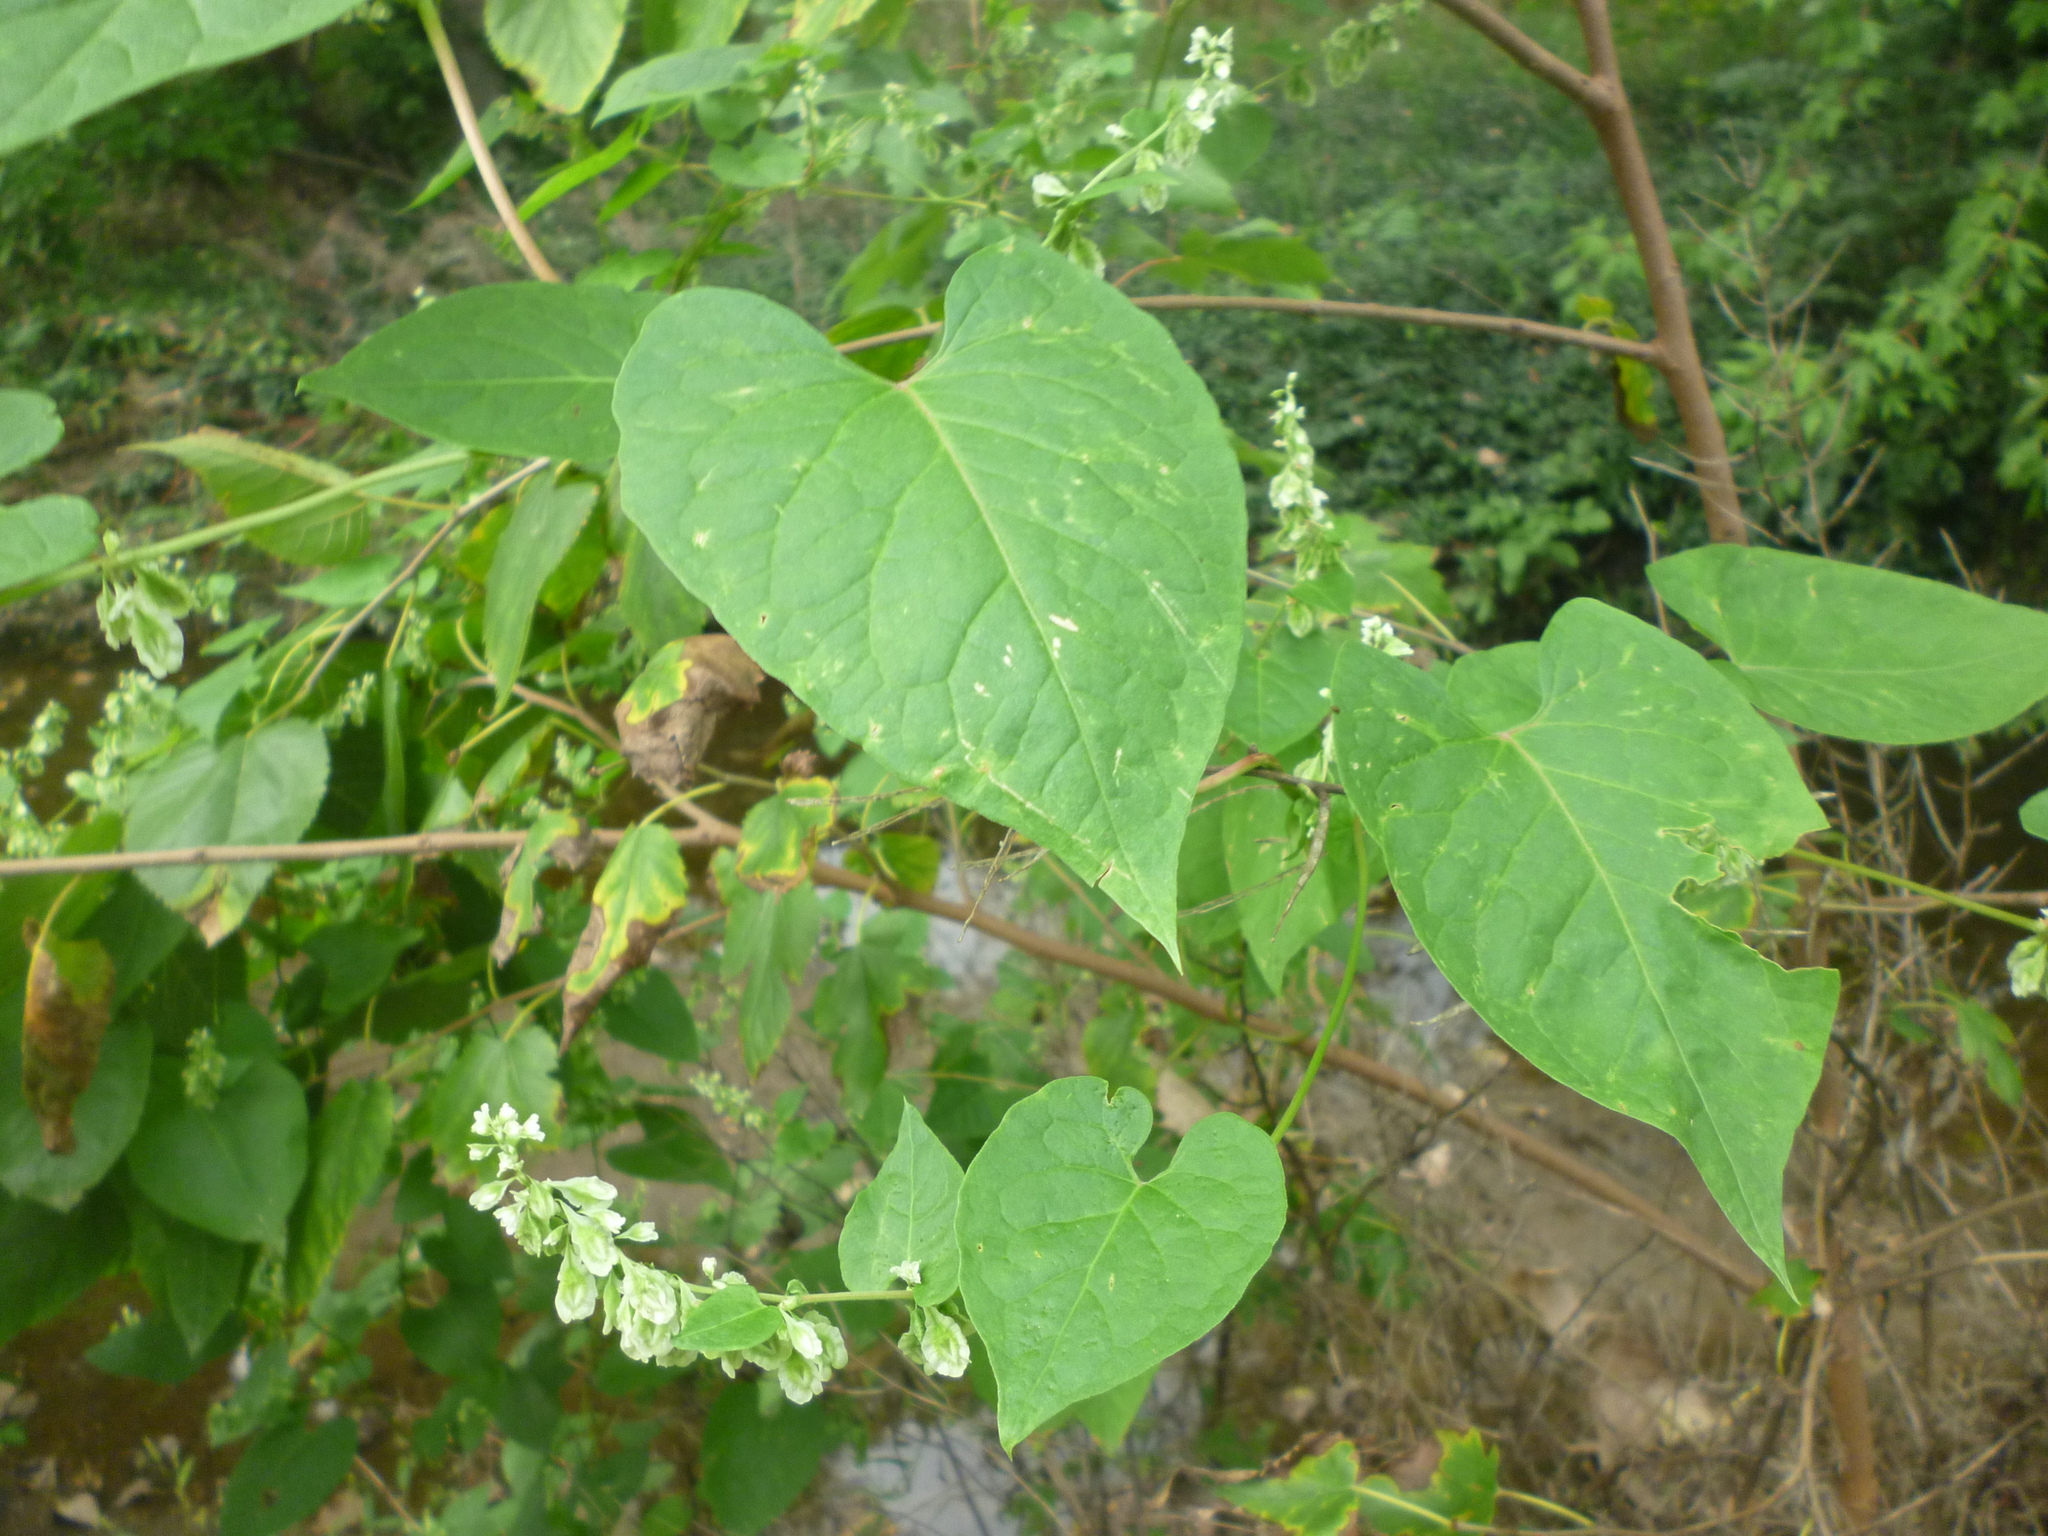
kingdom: Plantae
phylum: Tracheophyta
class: Magnoliopsida
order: Gentianales
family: Apocynaceae
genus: Cynanchum
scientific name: Cynanchum laeve
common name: Sandvine
